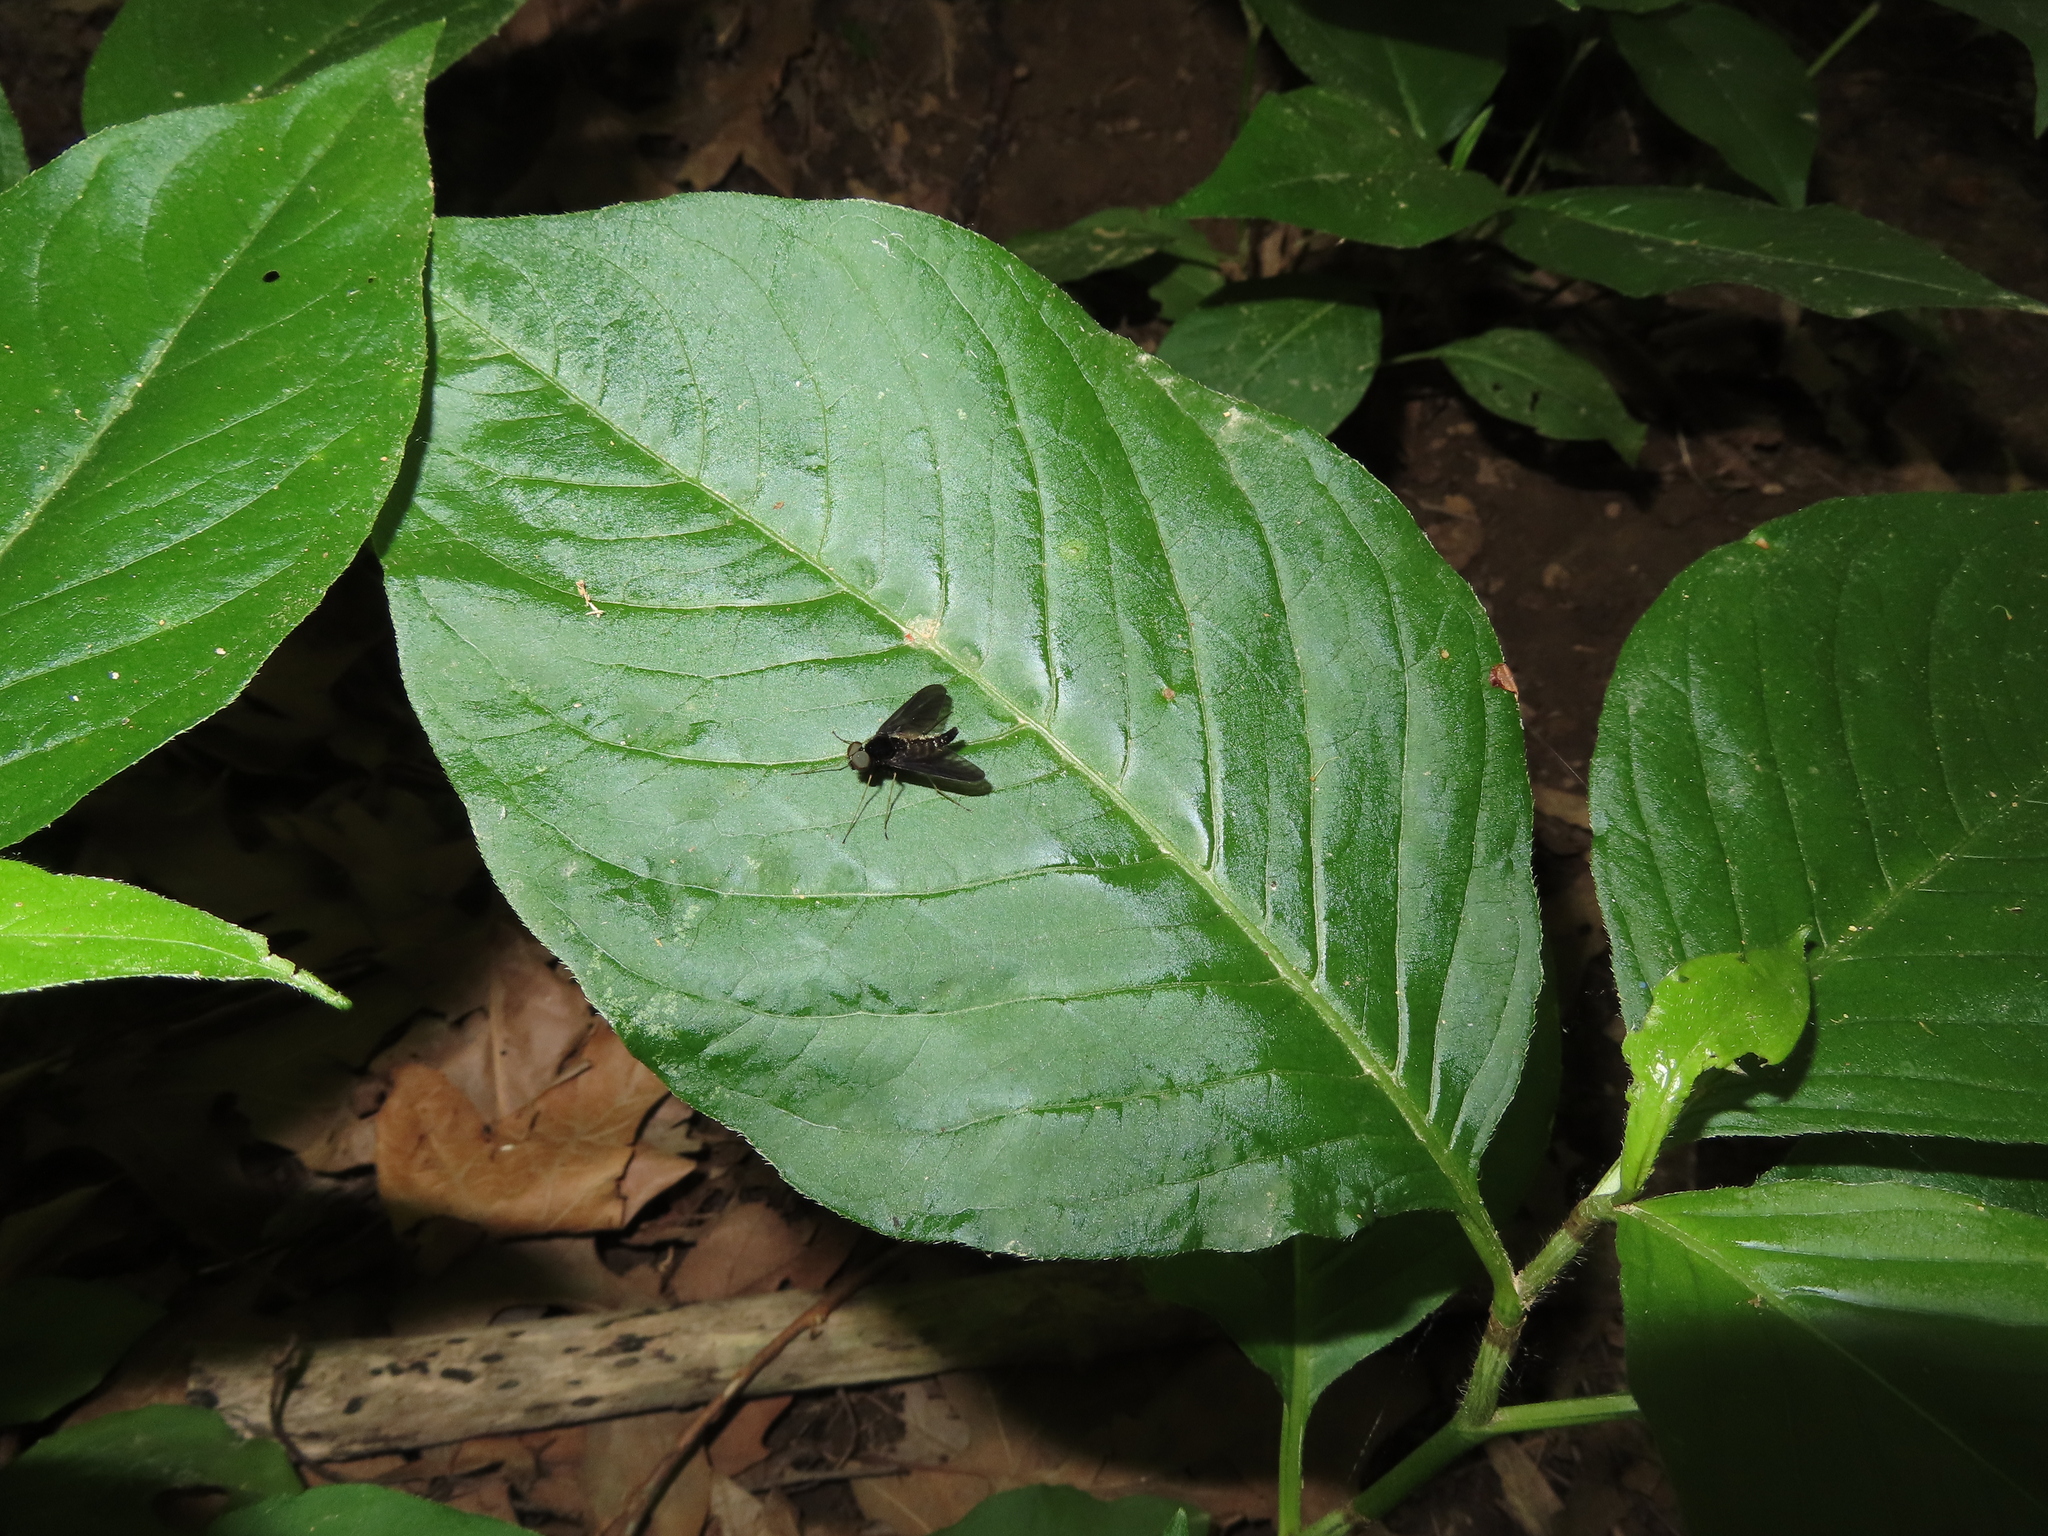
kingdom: Animalia
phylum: Arthropoda
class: Insecta
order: Diptera
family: Rhagionidae
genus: Chrysopilus
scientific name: Chrysopilus connexus
